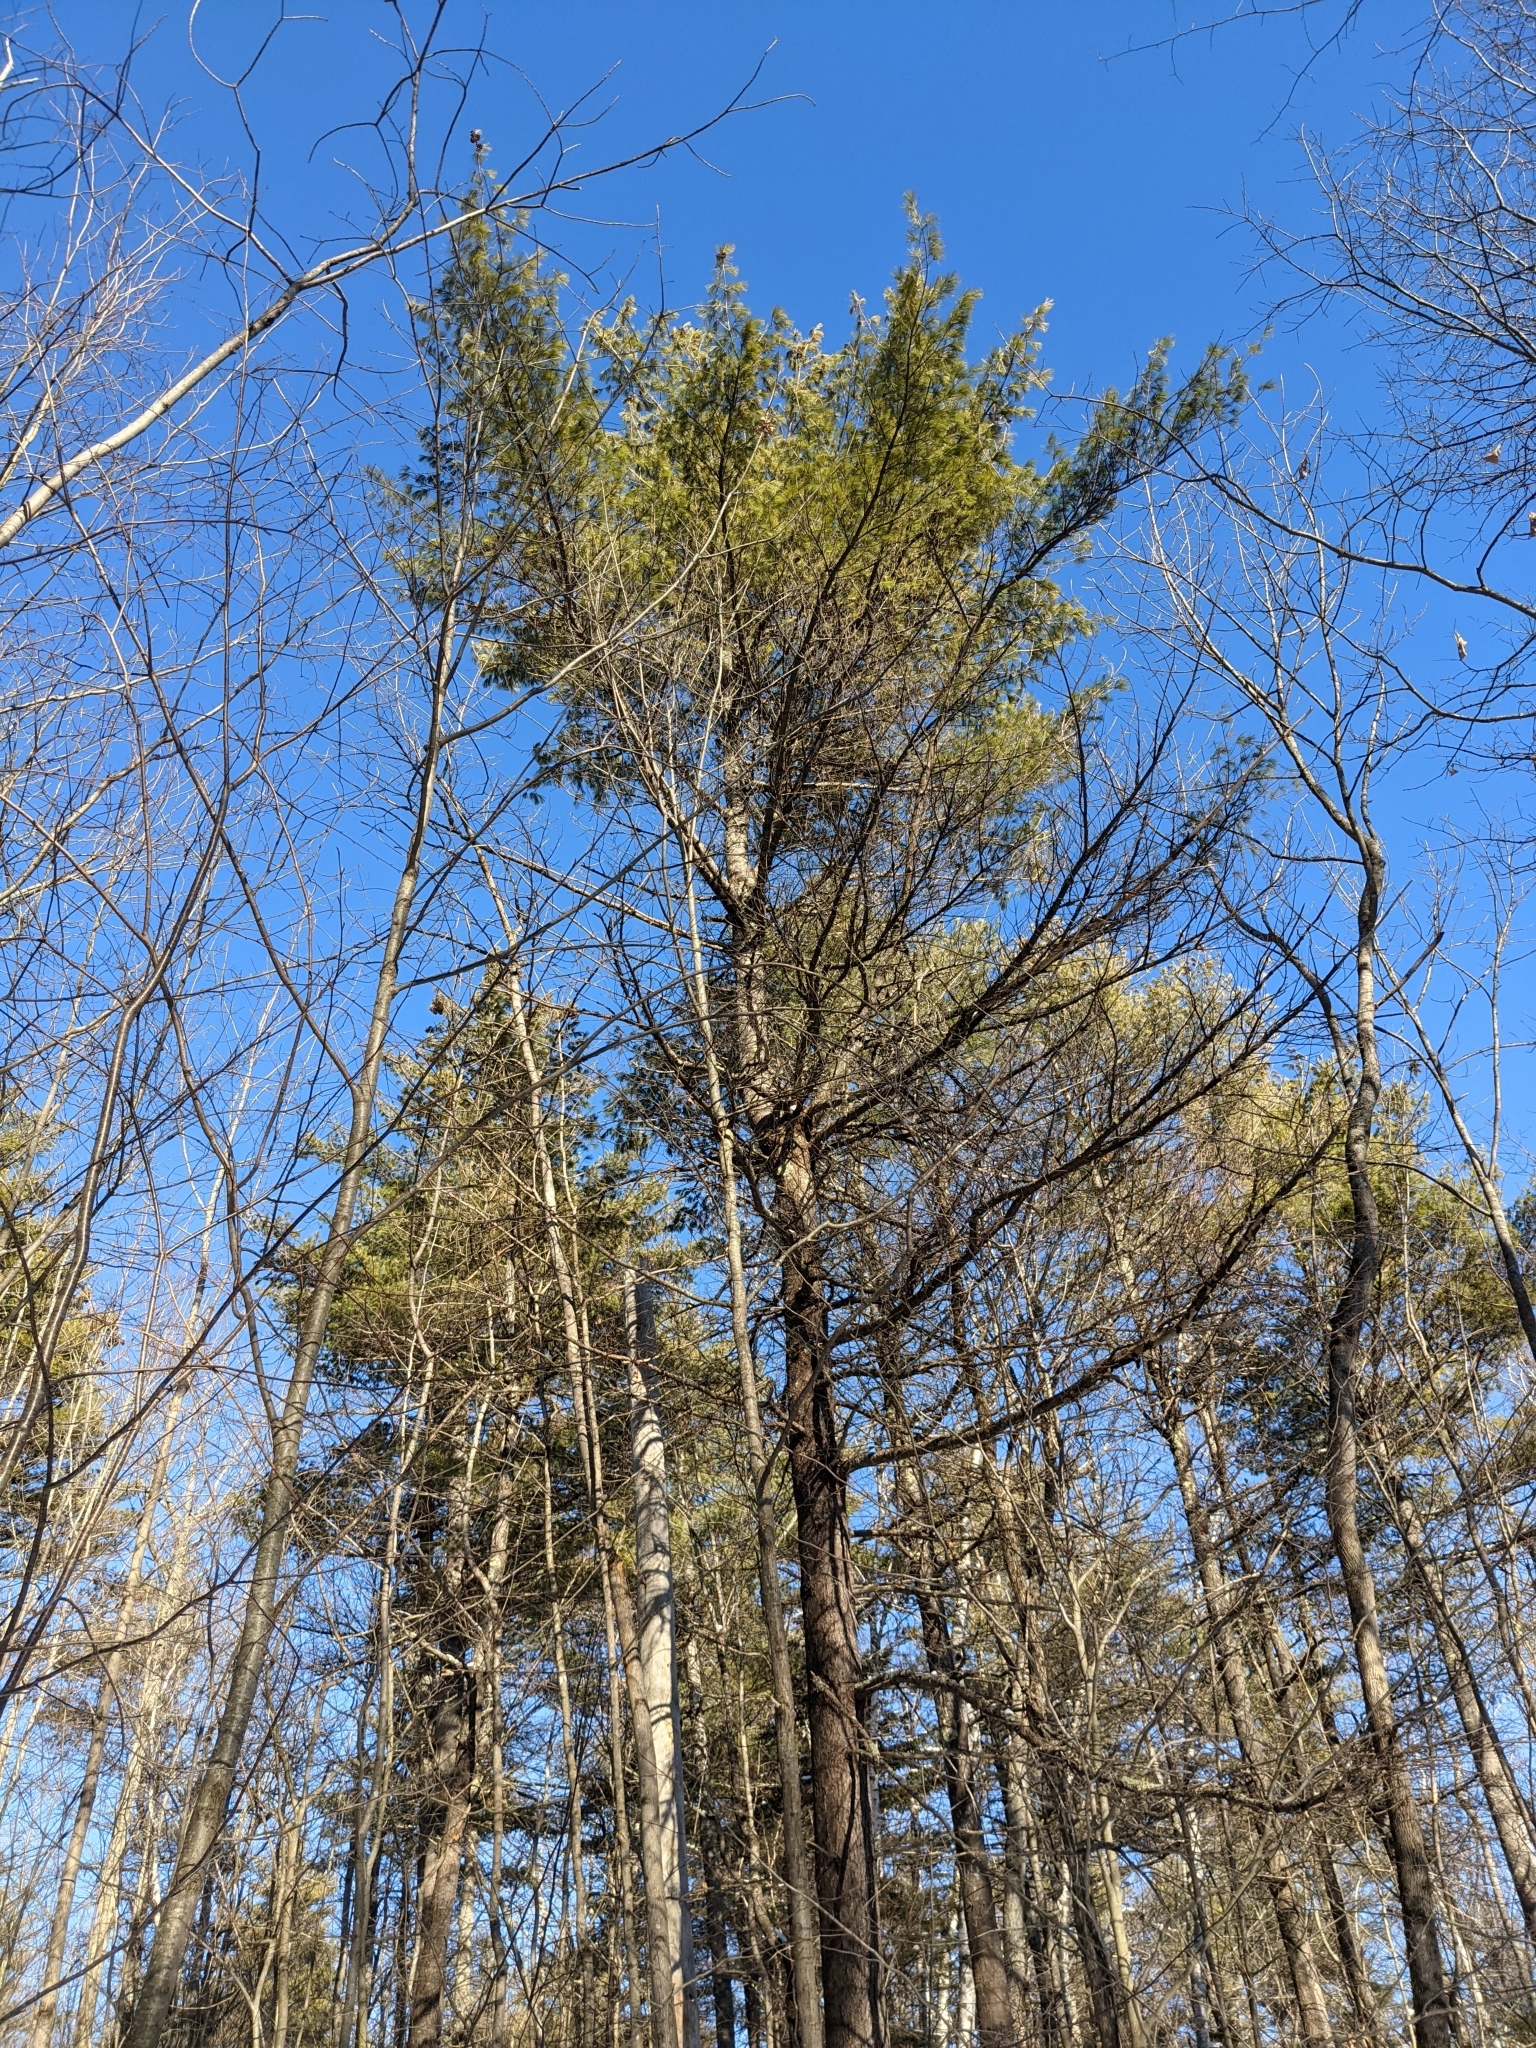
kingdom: Plantae
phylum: Tracheophyta
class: Pinopsida
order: Pinales
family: Pinaceae
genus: Pinus
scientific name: Pinus strobus
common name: Weymouth pine
